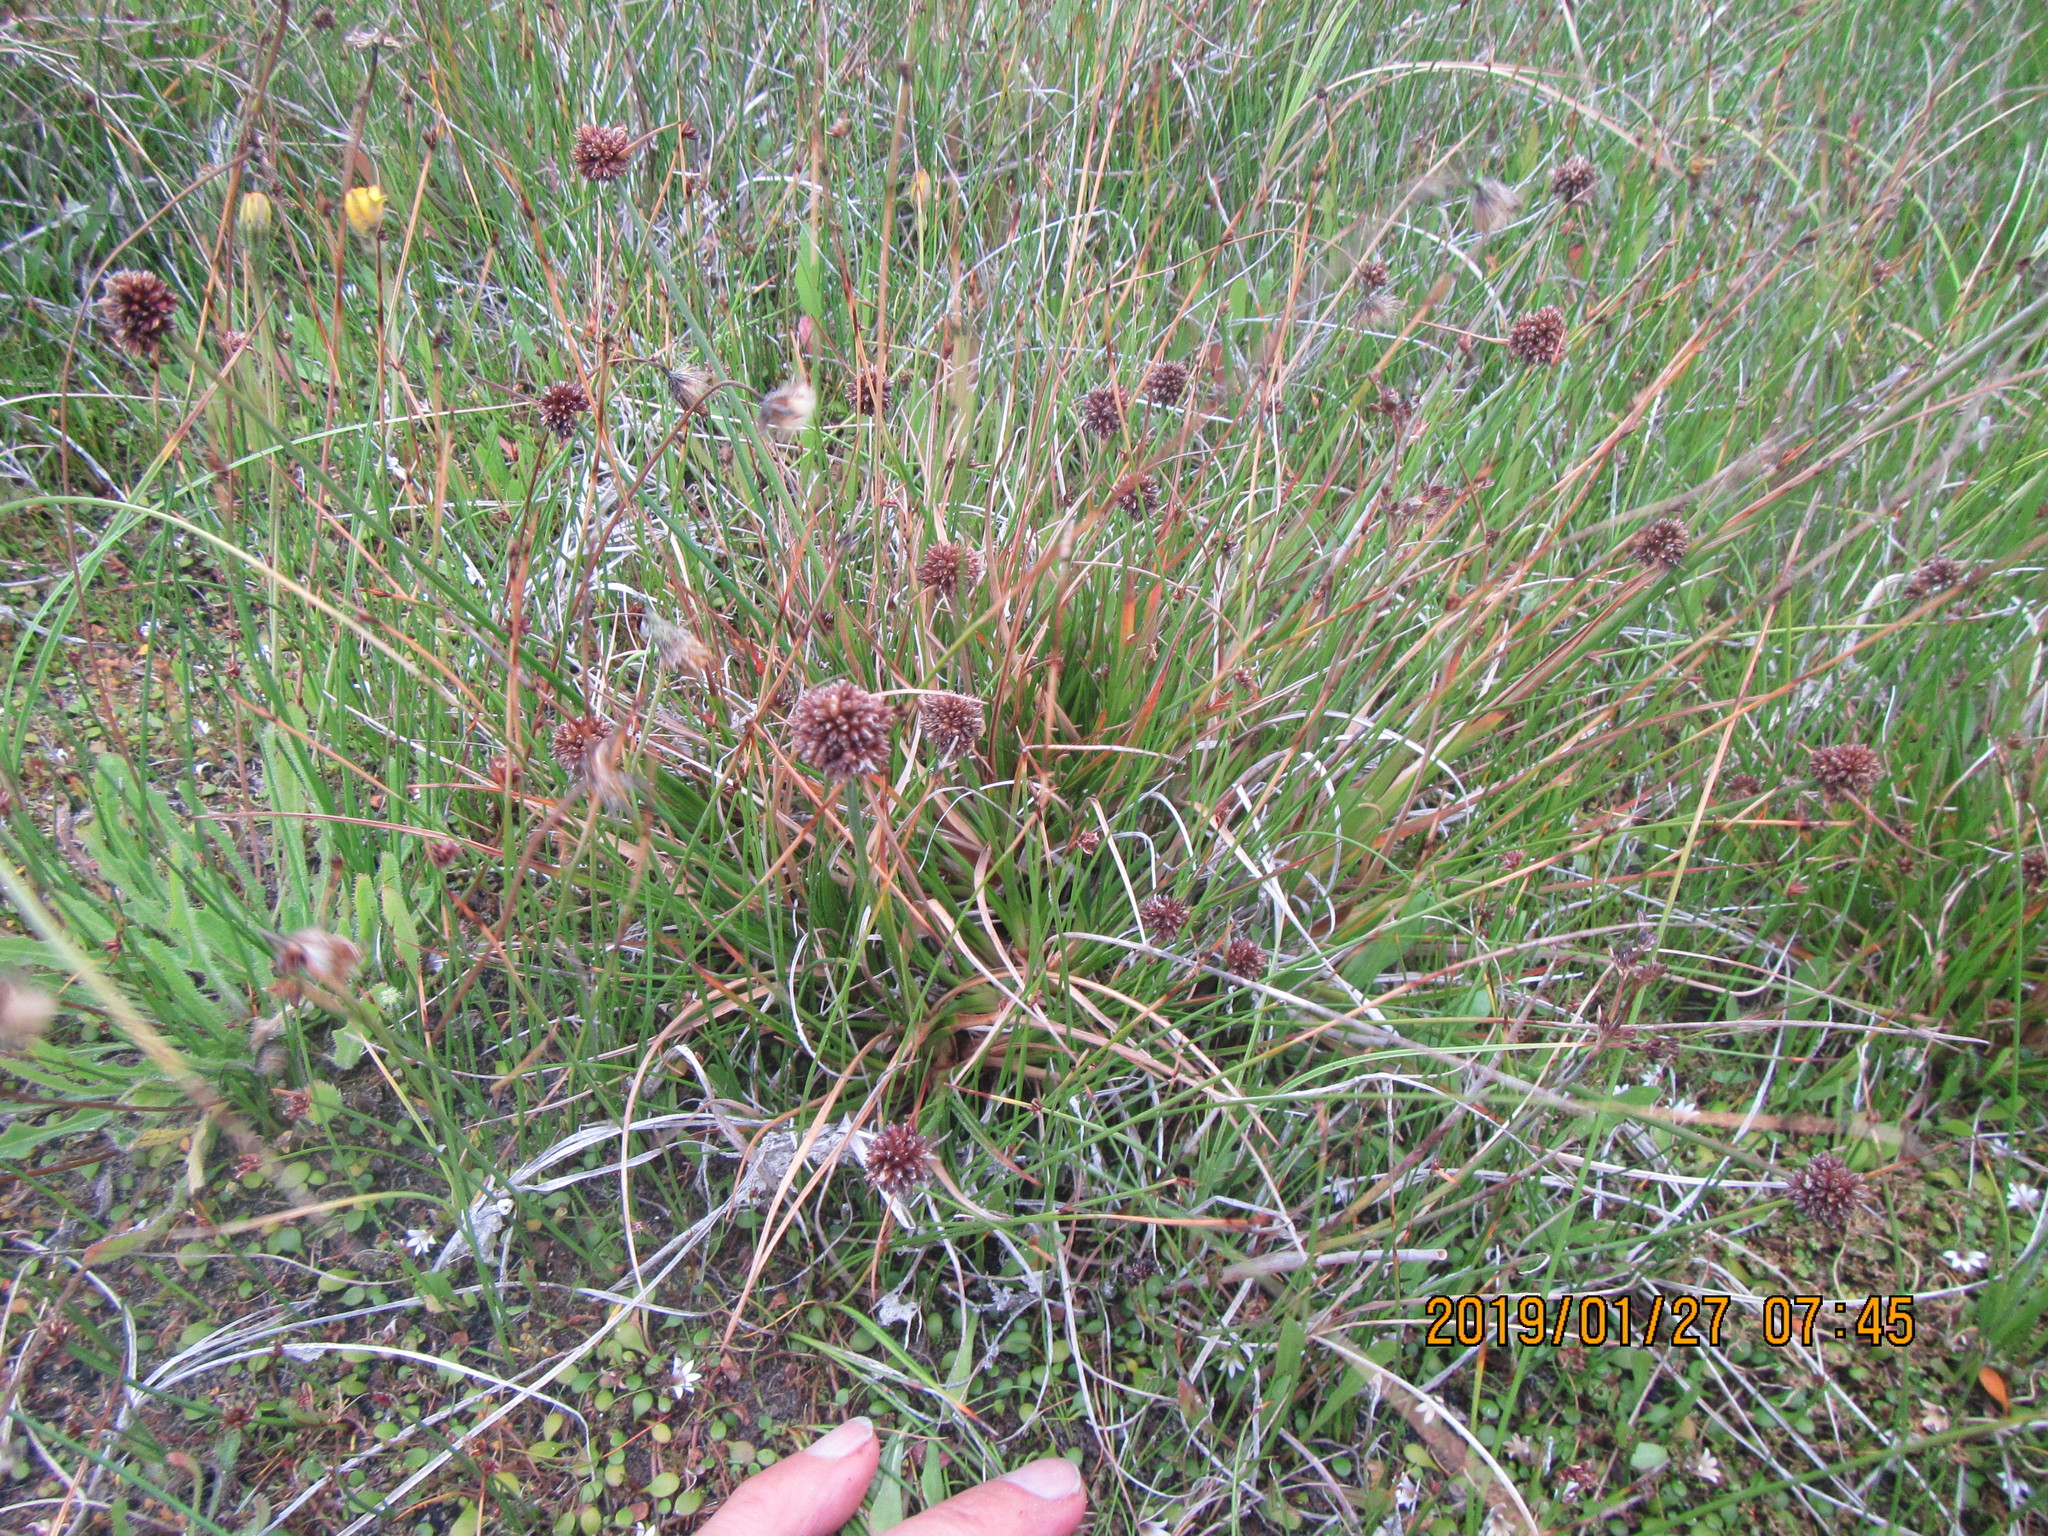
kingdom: Plantae
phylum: Tracheophyta
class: Liliopsida
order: Poales
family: Juncaceae
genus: Juncus
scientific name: Juncus caespiticius
